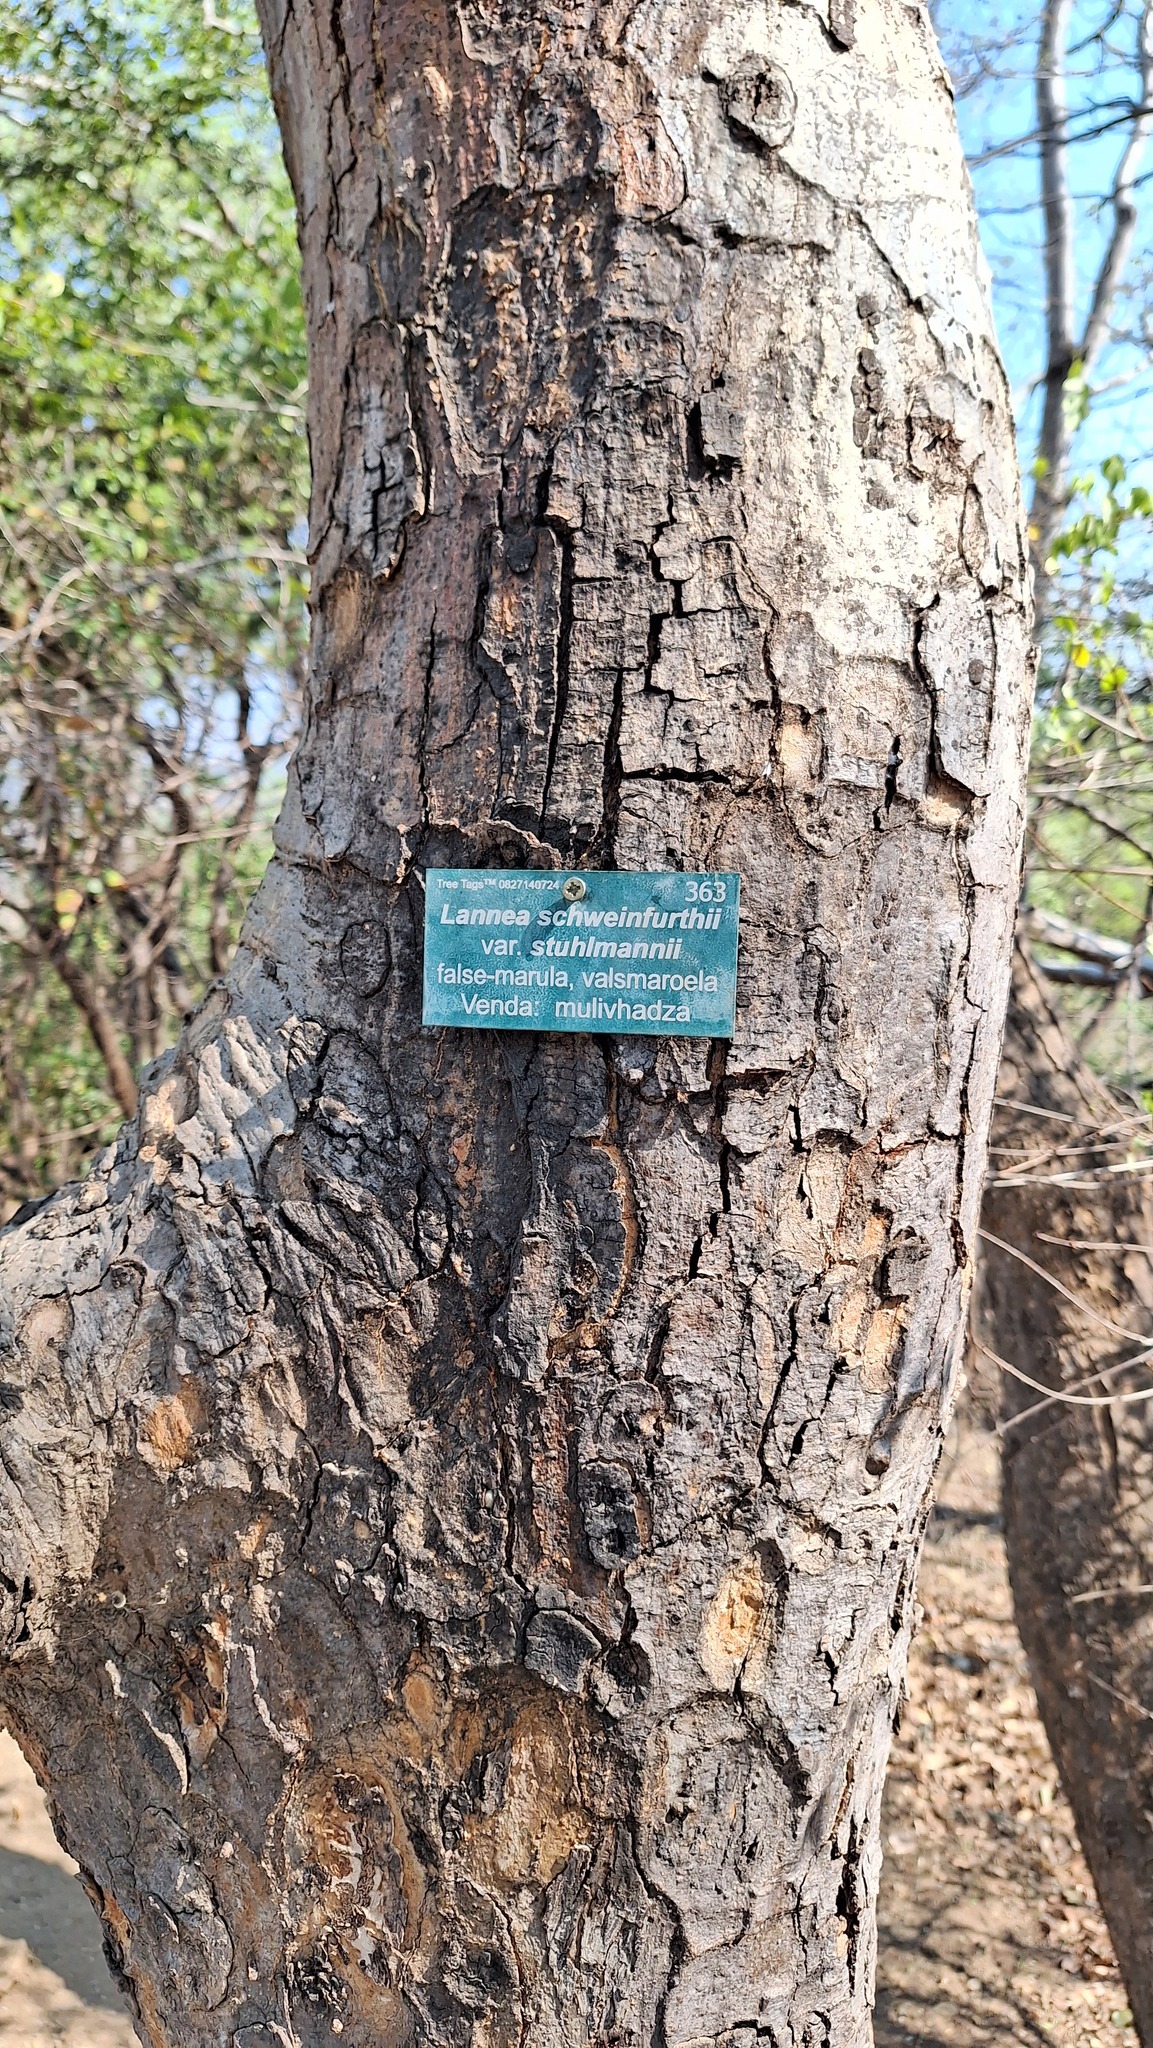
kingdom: Plantae
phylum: Tracheophyta
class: Magnoliopsida
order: Sapindales
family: Anacardiaceae
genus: Lannea
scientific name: Lannea schweinfurthii
